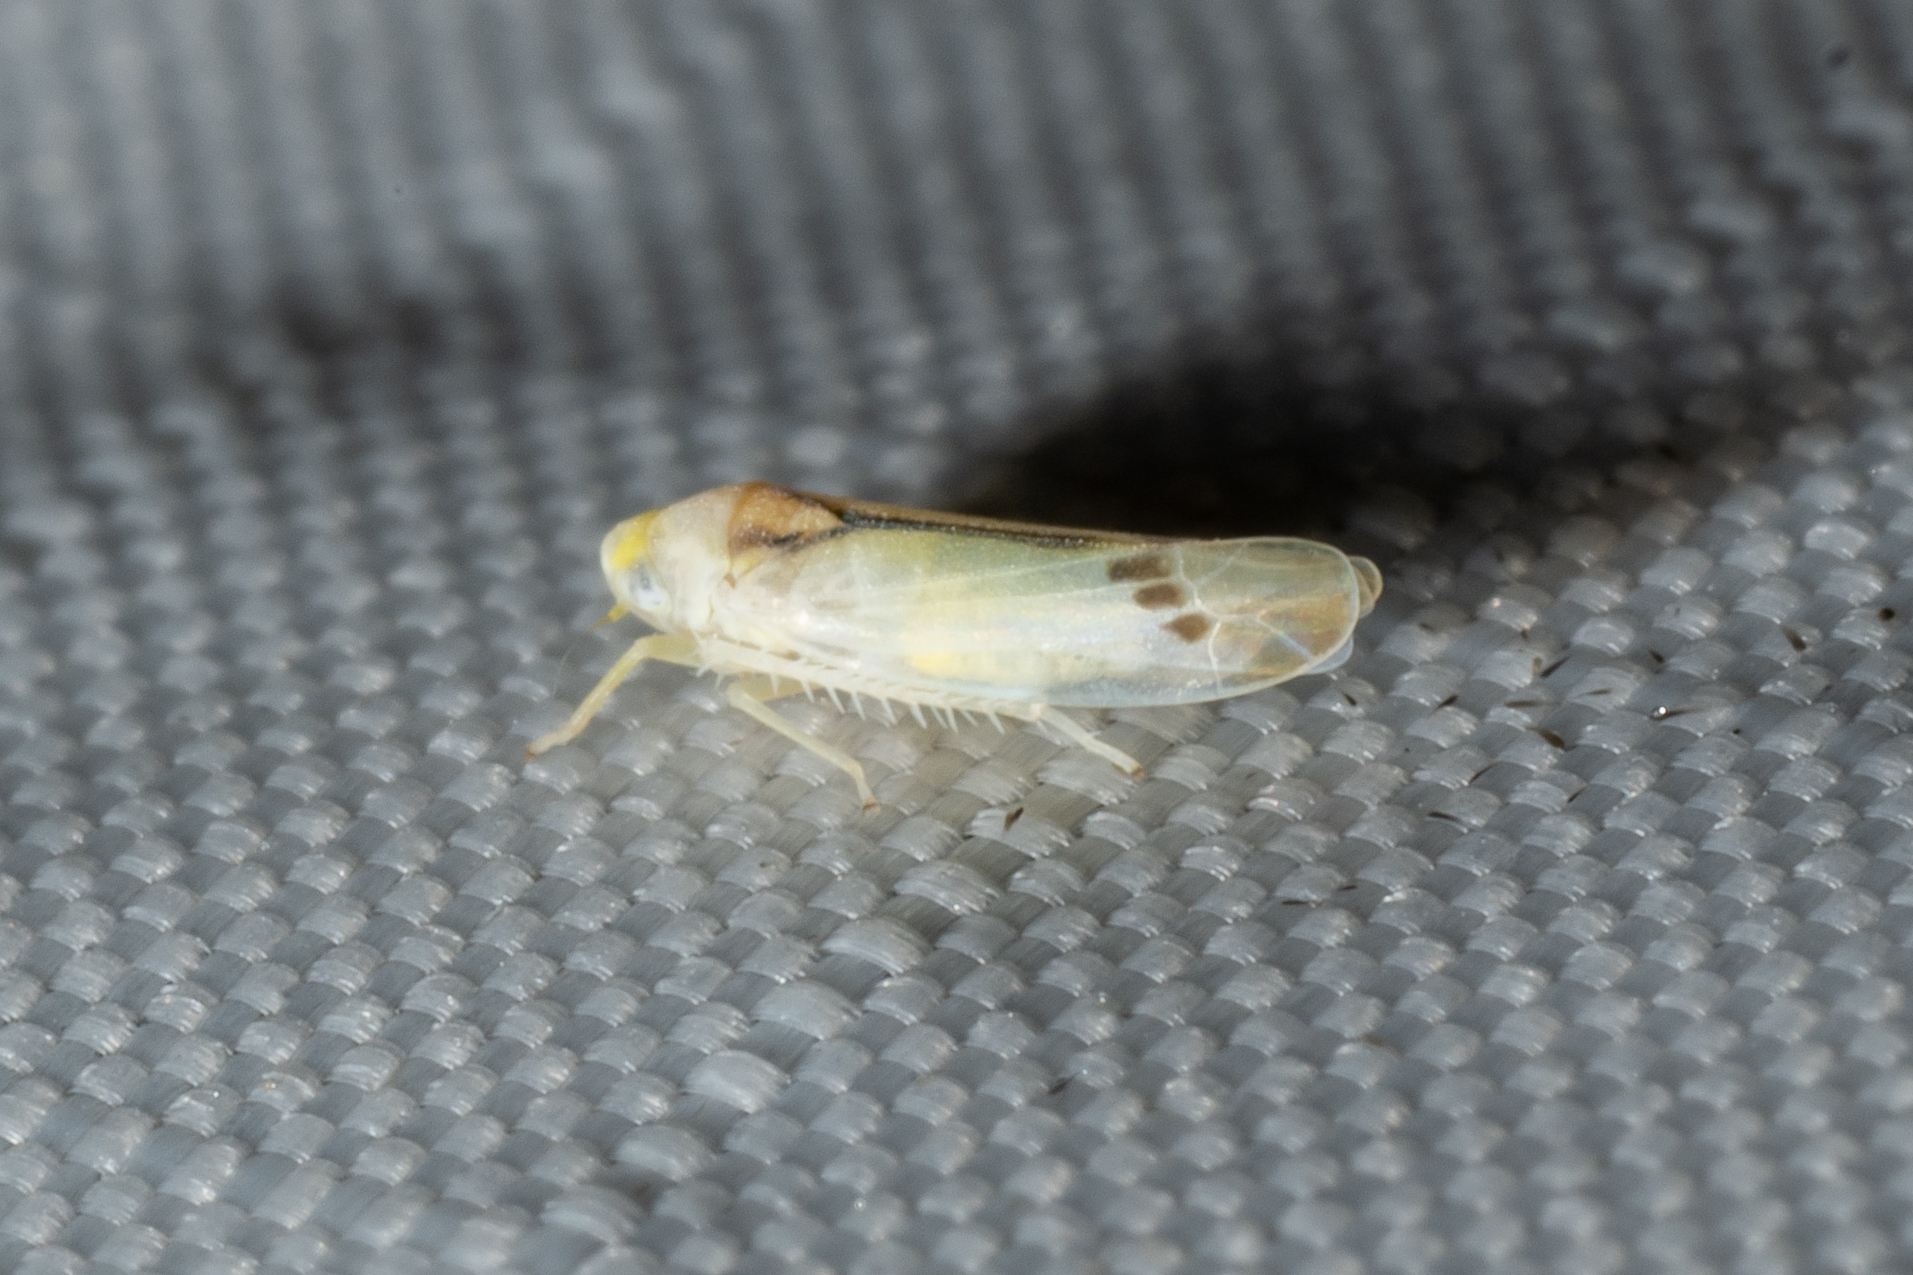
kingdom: Animalia
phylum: Arthropoda
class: Insecta
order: Hemiptera
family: Cicadellidae
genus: Ossiannilssonola
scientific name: Ossiannilssonola phryne
